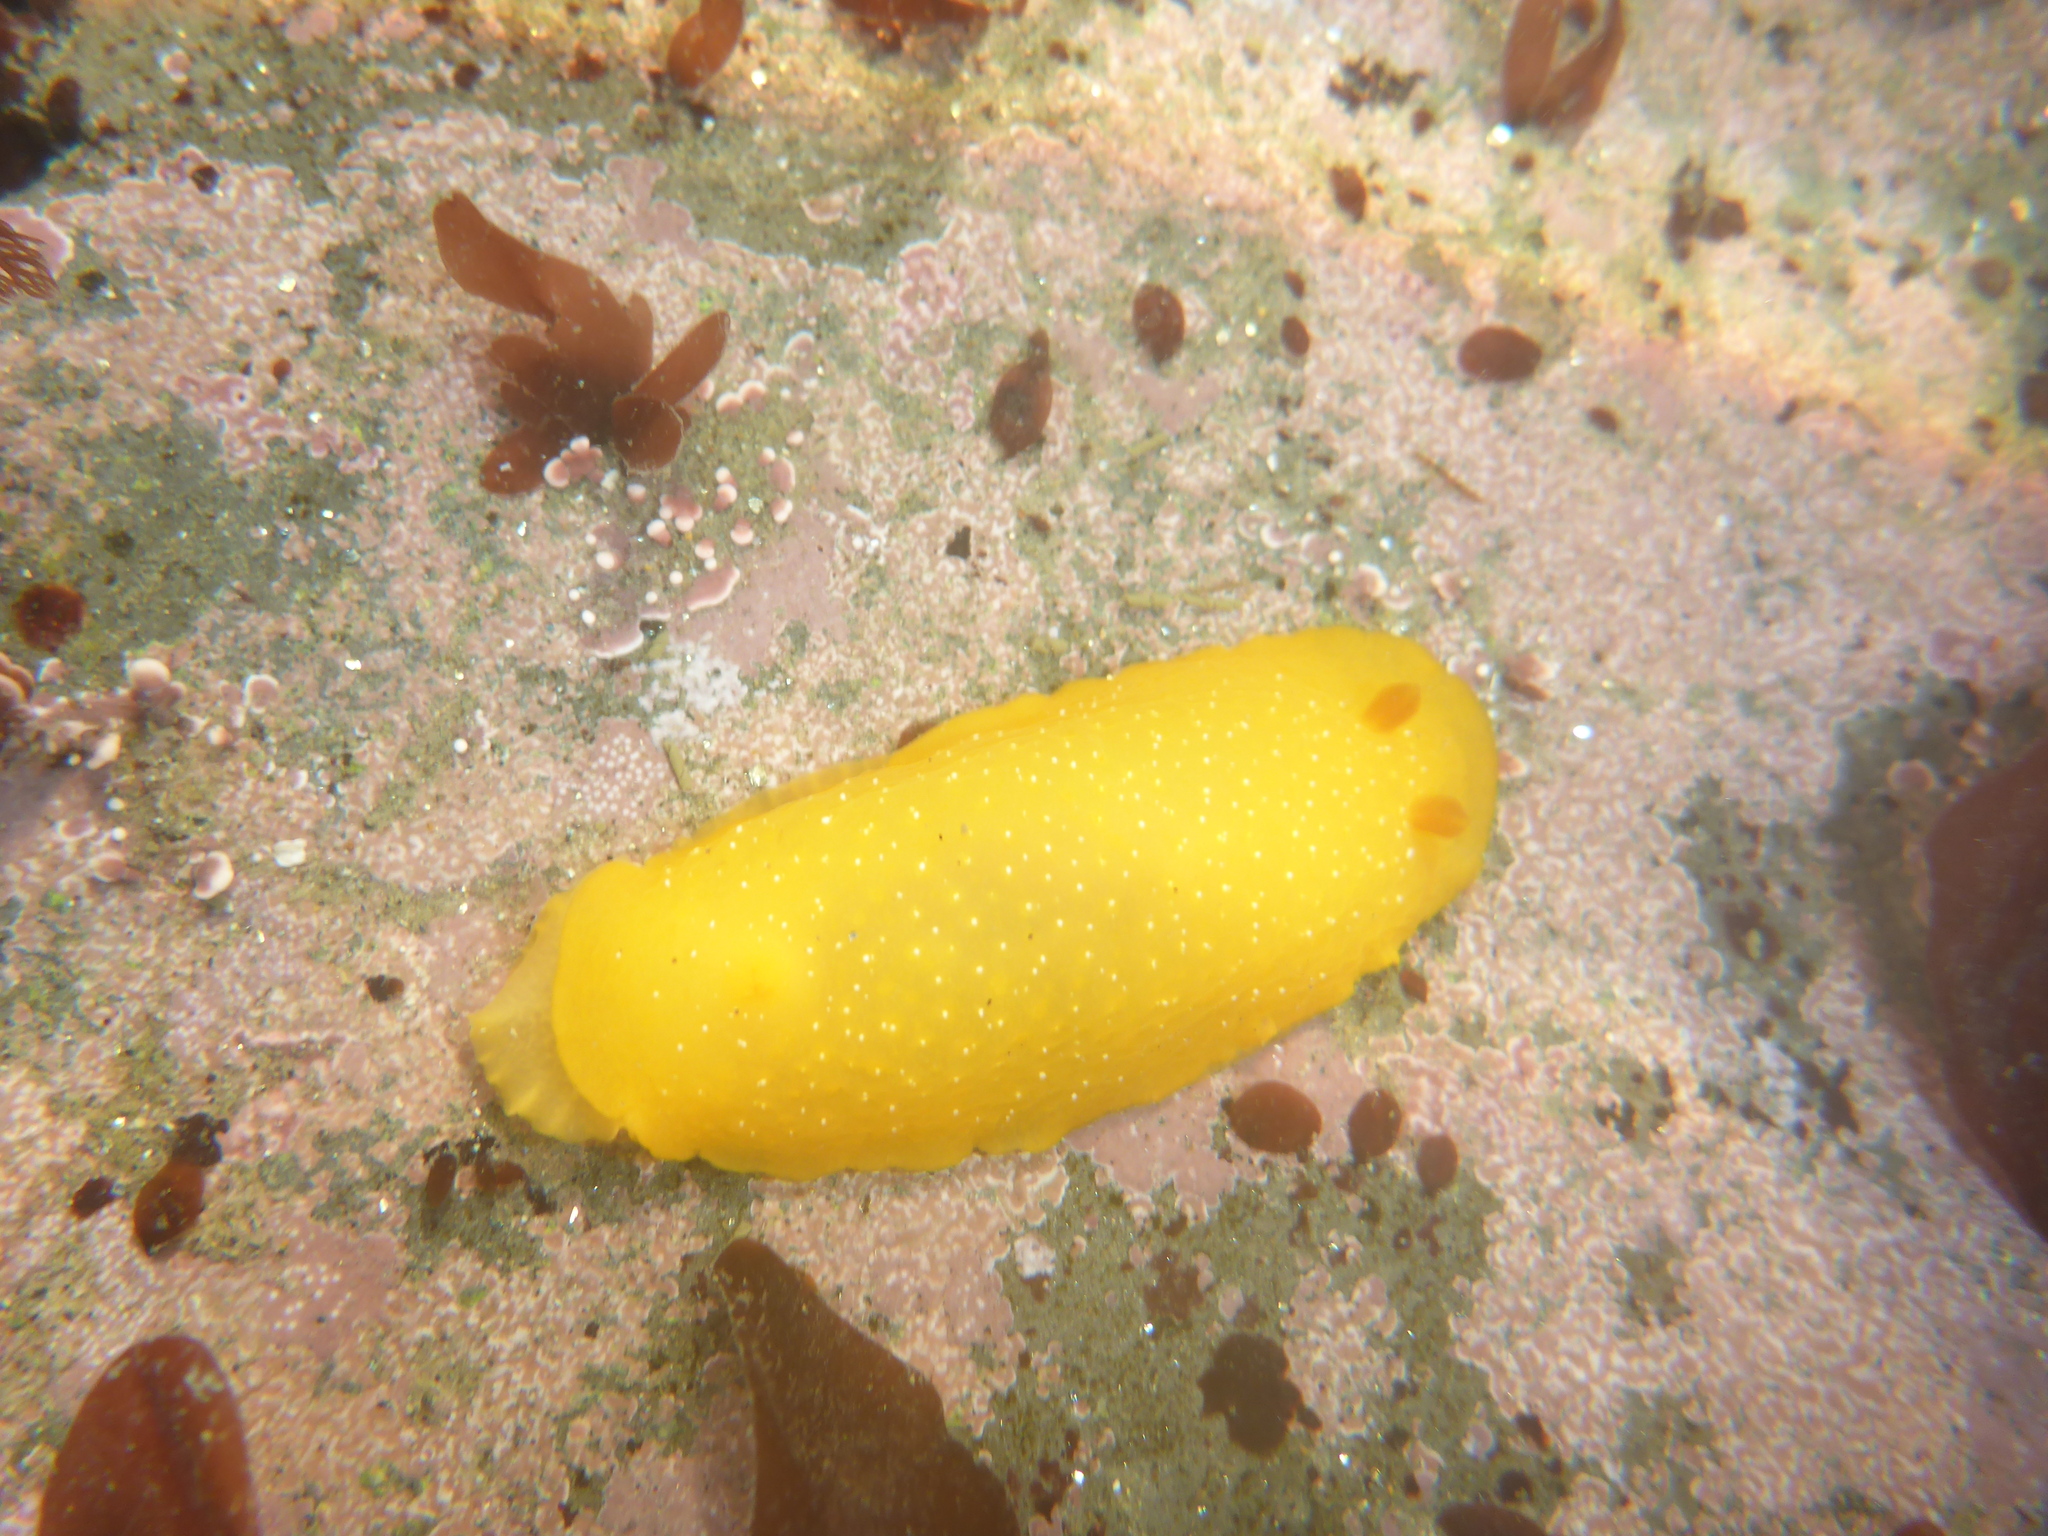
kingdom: Animalia
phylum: Mollusca
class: Gastropoda
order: Nudibranchia
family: Dendrodorididae
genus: Doriopsilla
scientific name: Doriopsilla fulva
